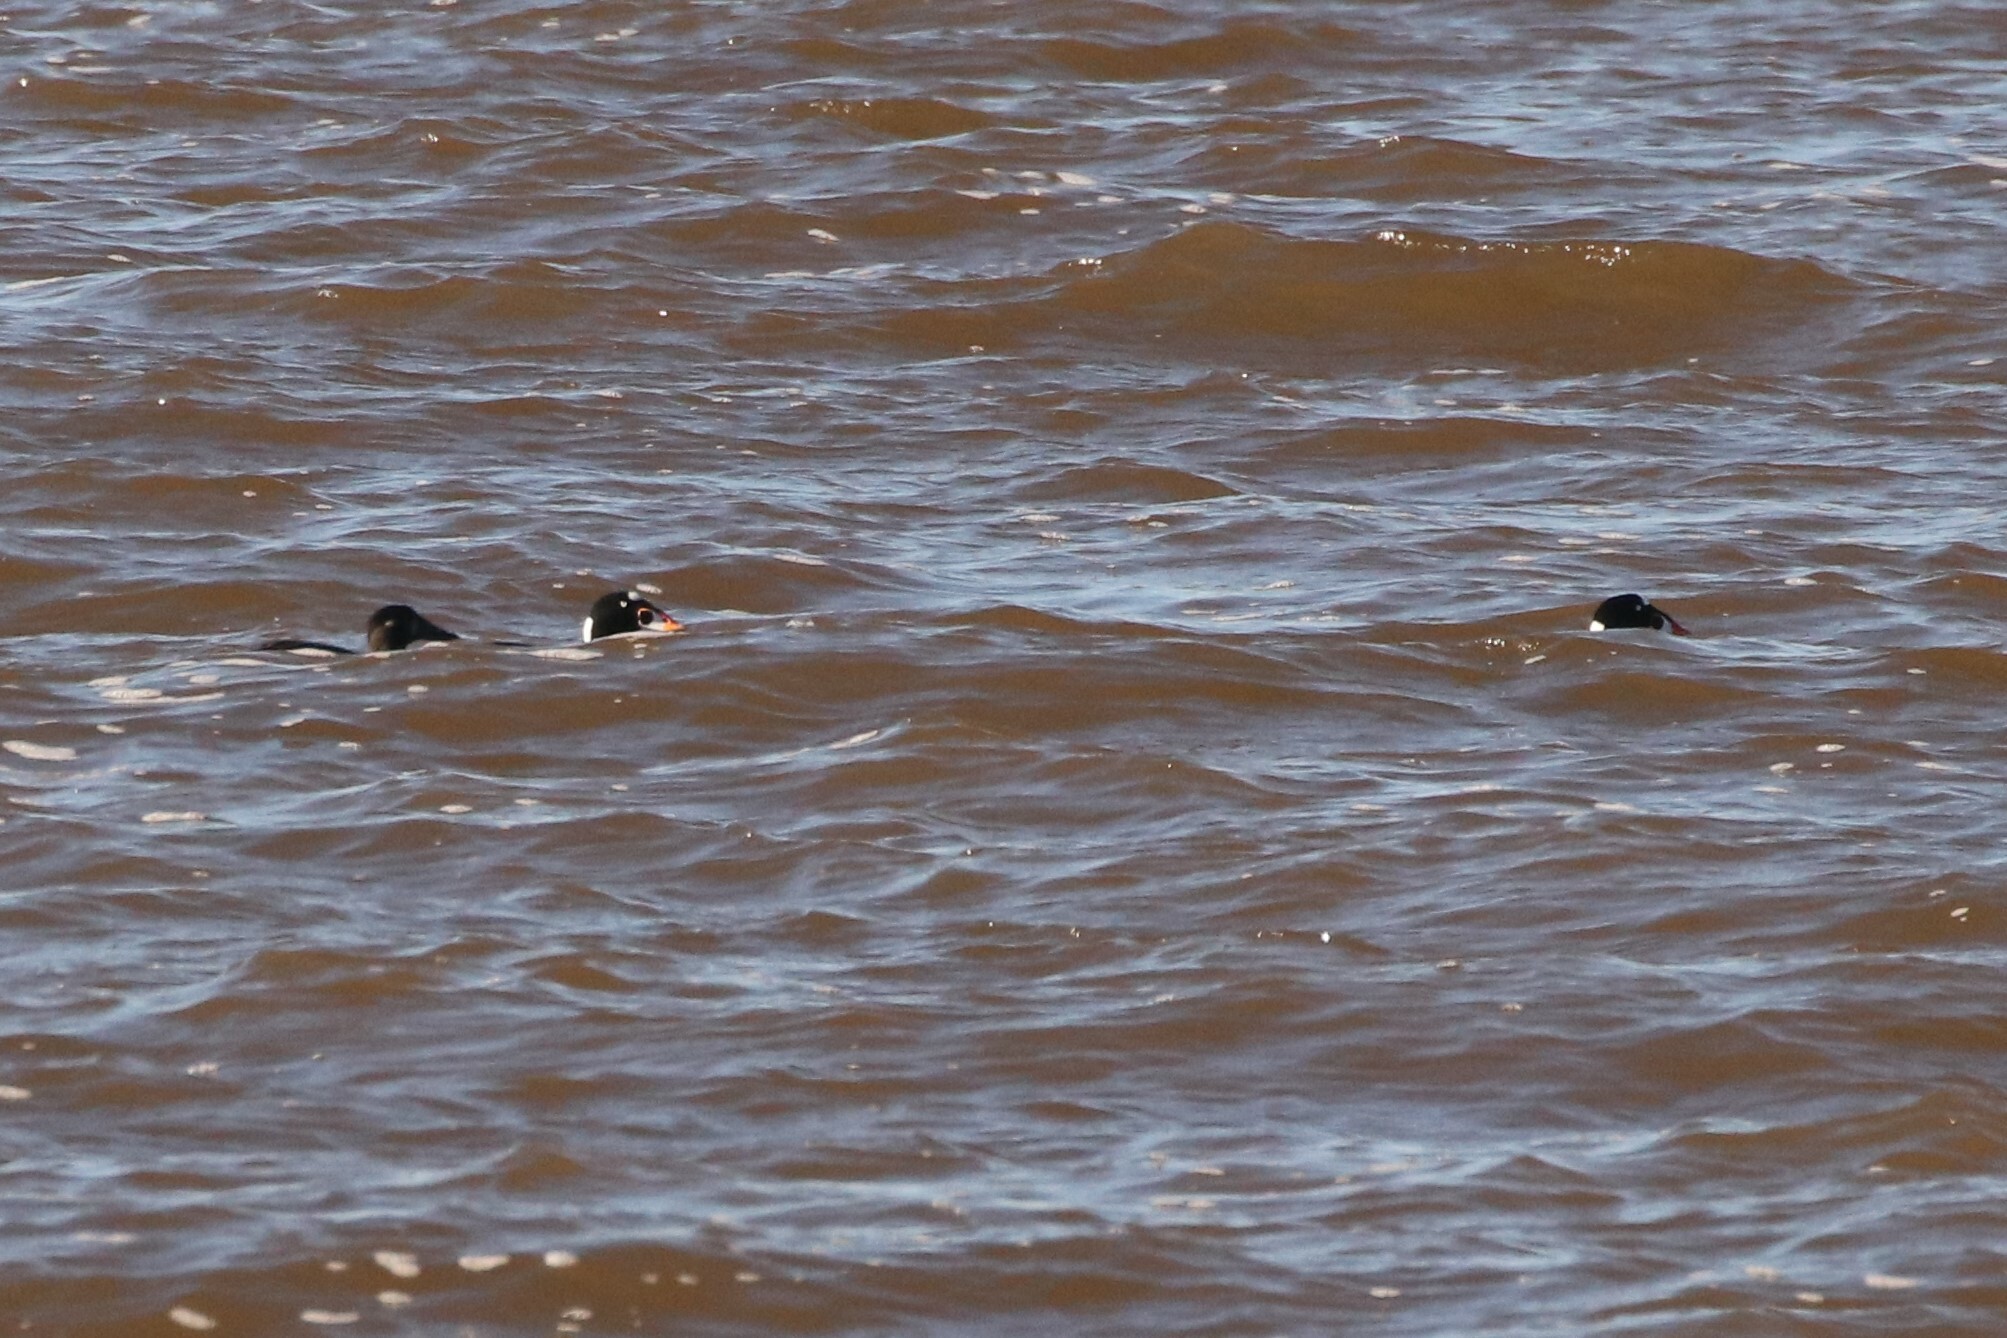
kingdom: Animalia
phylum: Chordata
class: Aves
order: Anseriformes
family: Anatidae
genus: Melanitta
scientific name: Melanitta perspicillata
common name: Surf scoter
